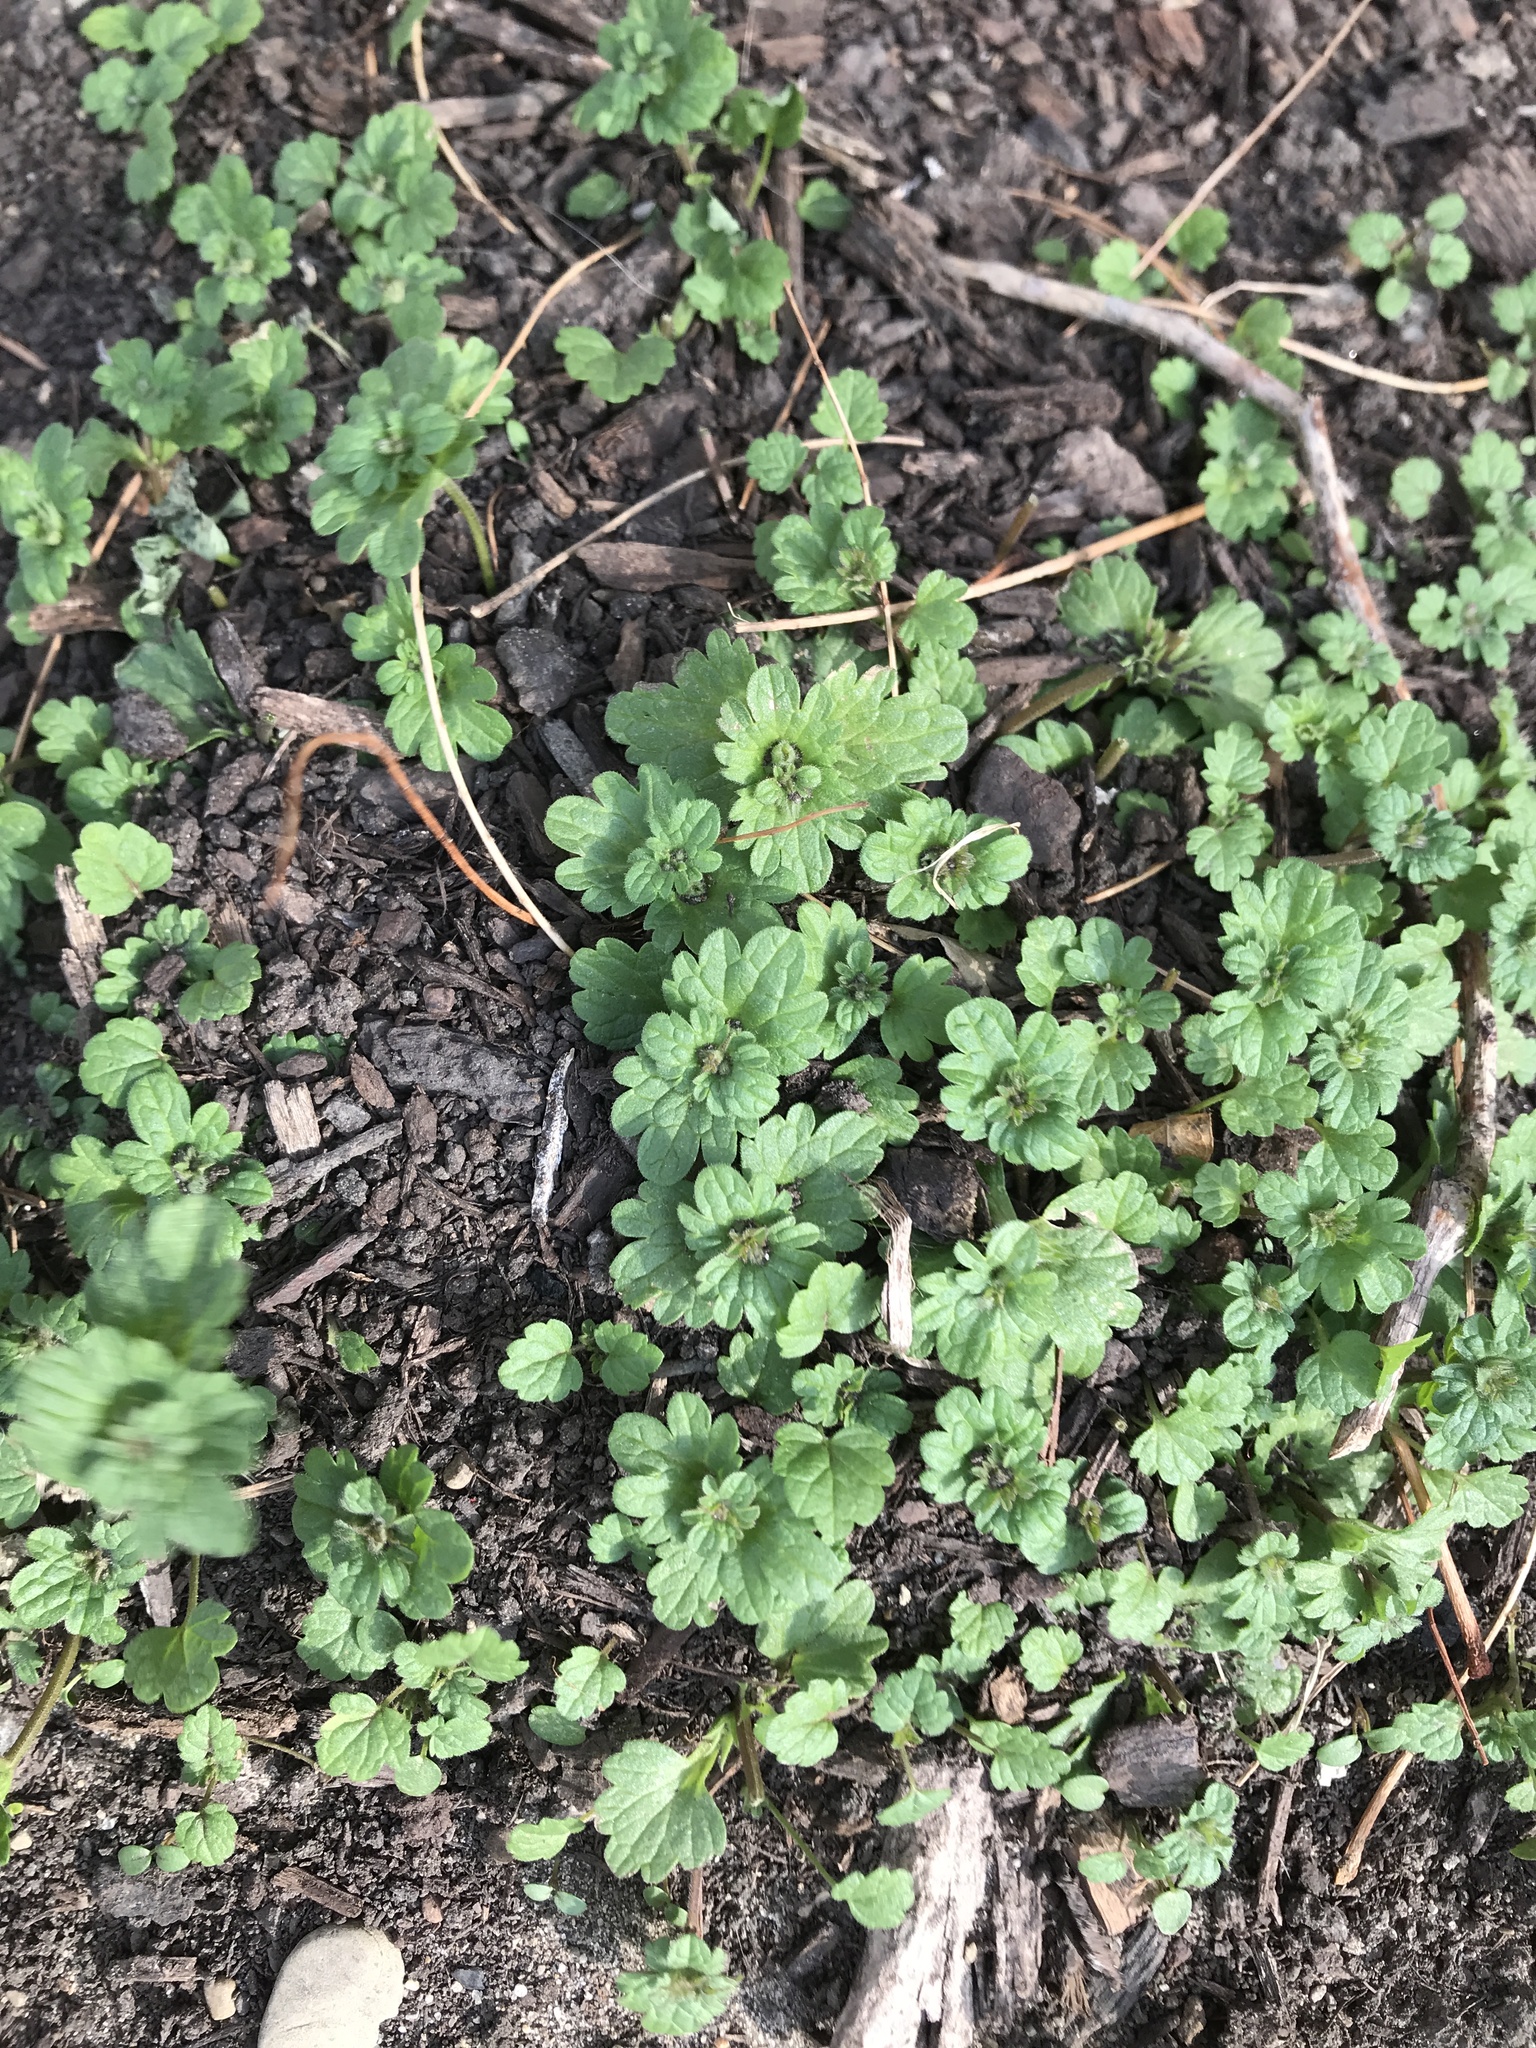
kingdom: Plantae
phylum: Tracheophyta
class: Magnoliopsida
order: Lamiales
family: Lamiaceae
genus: Lamium
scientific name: Lamium amplexicaule
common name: Henbit dead-nettle
